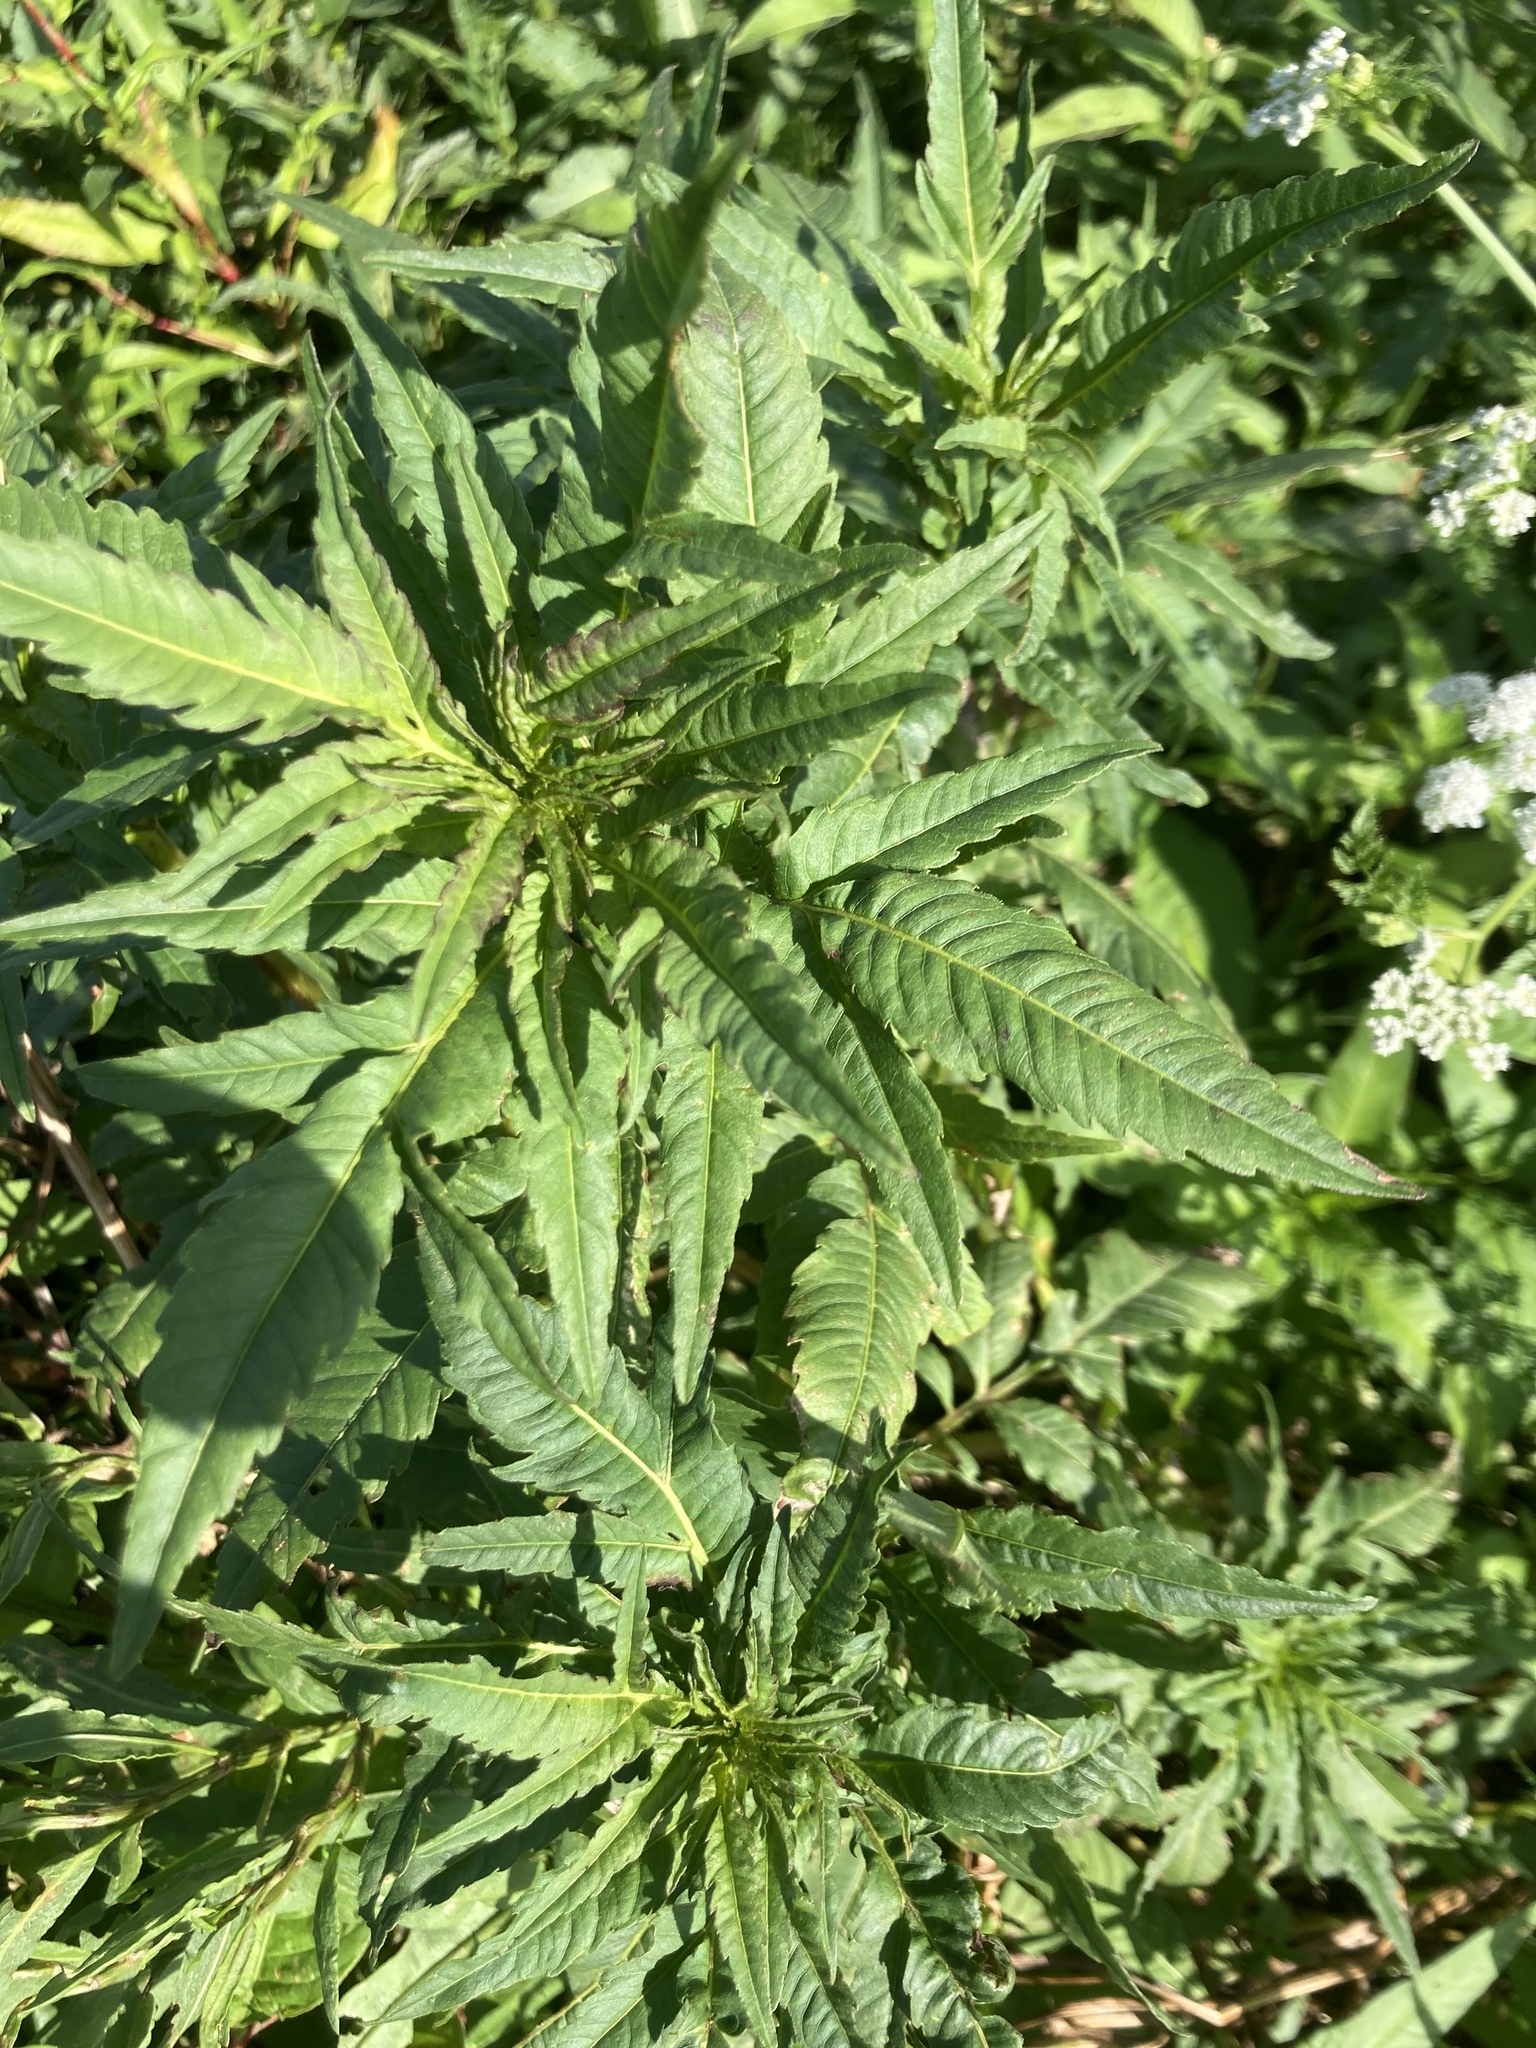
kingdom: Plantae
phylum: Tracheophyta
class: Magnoliopsida
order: Asterales
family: Asteraceae
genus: Bidens
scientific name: Bidens radiata
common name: Radiating bur-marigold
